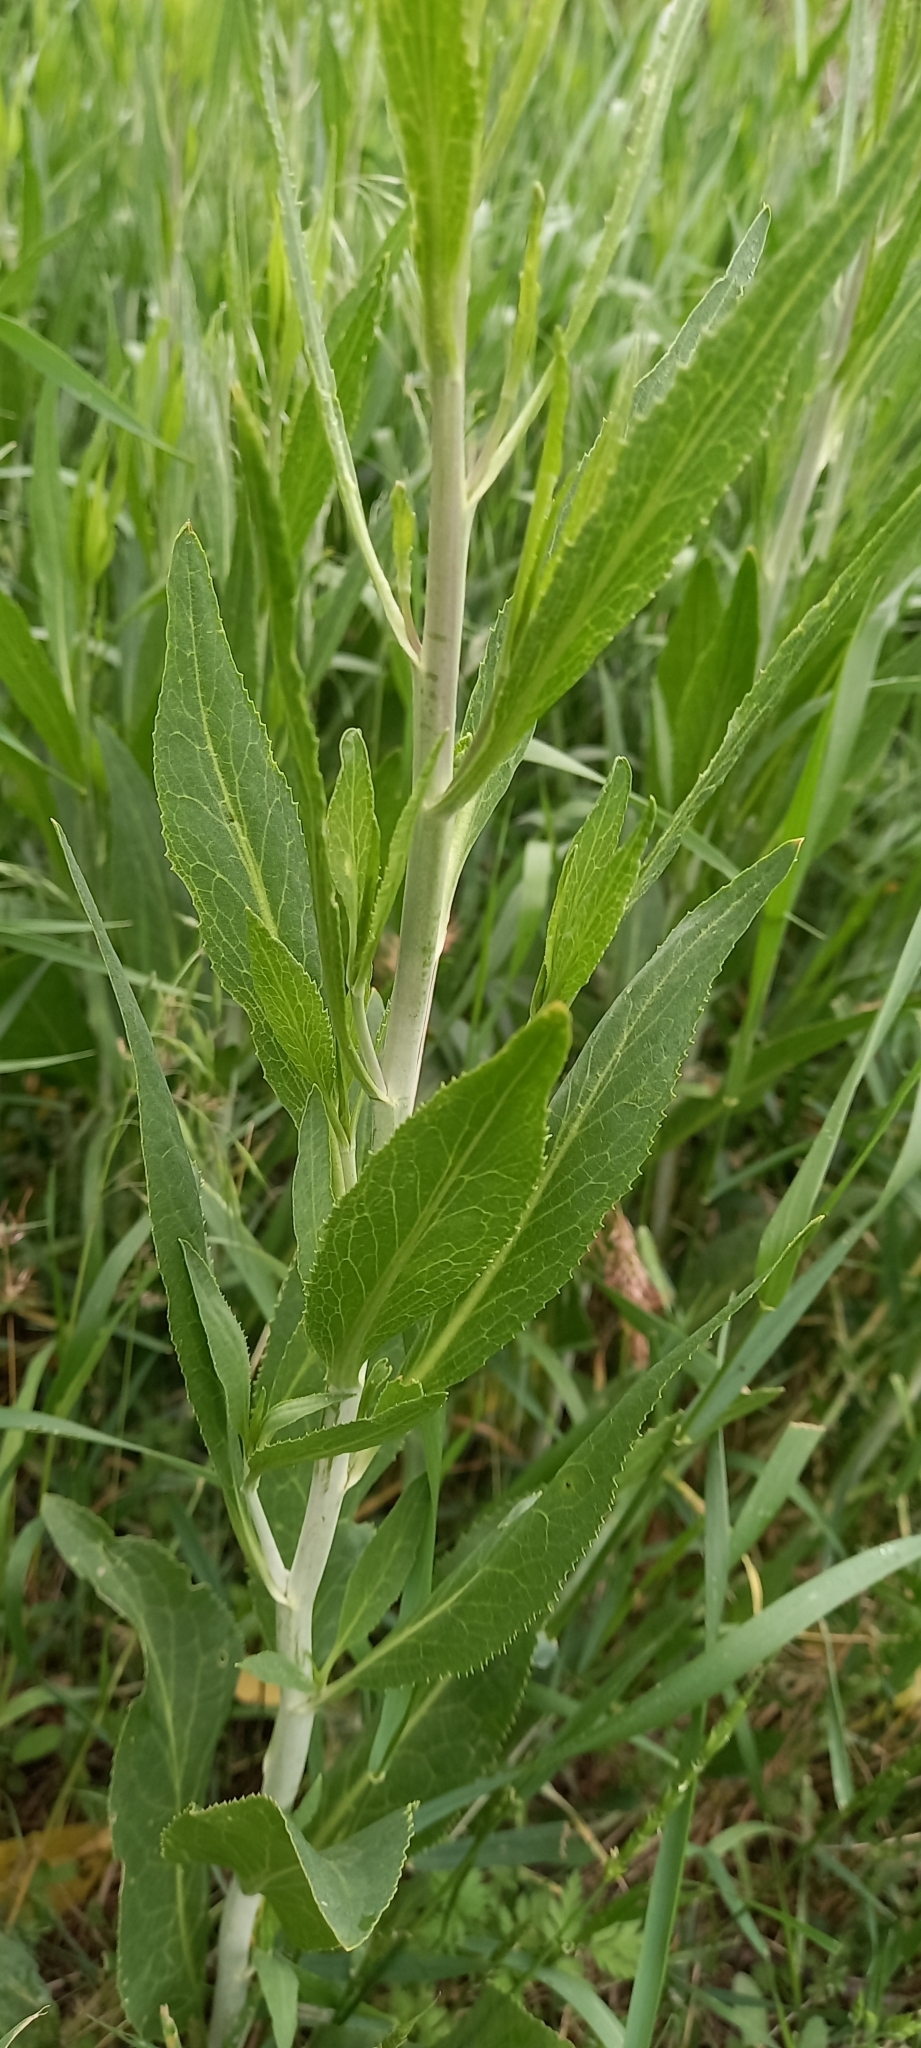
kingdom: Plantae
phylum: Tracheophyta
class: Magnoliopsida
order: Brassicales
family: Brassicaceae
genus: Lepidium
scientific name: Lepidium latifolium
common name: Dittander
